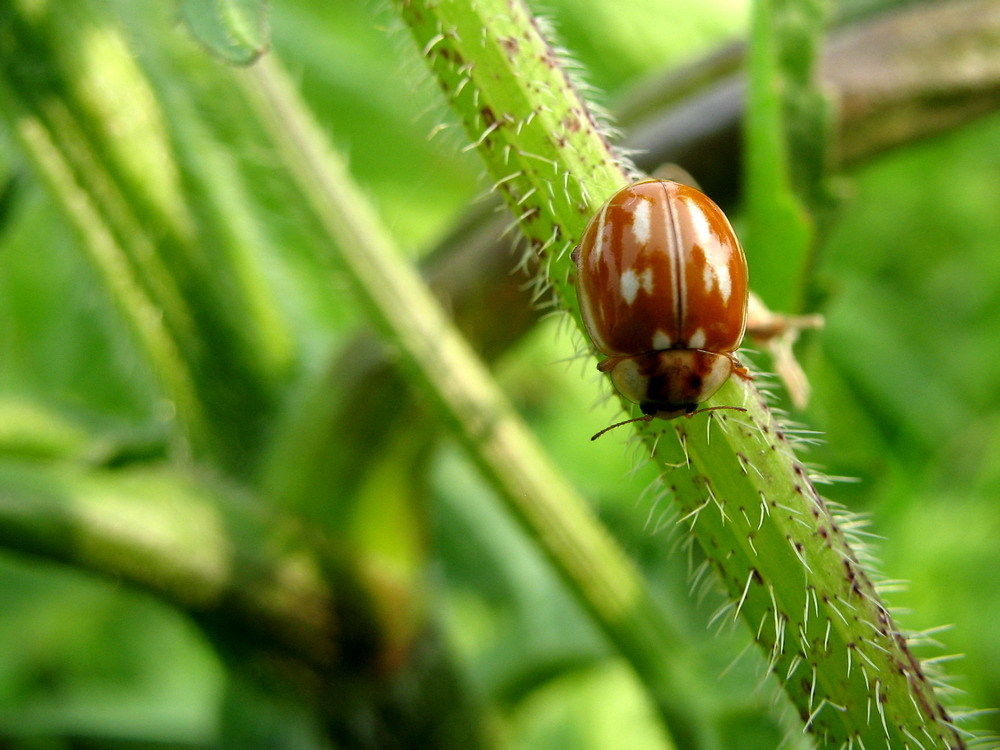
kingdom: Animalia
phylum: Arthropoda
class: Insecta
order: Coleoptera
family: Coccinellidae
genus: Myzia
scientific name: Myzia oblongoguttata
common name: Striped ladybird
